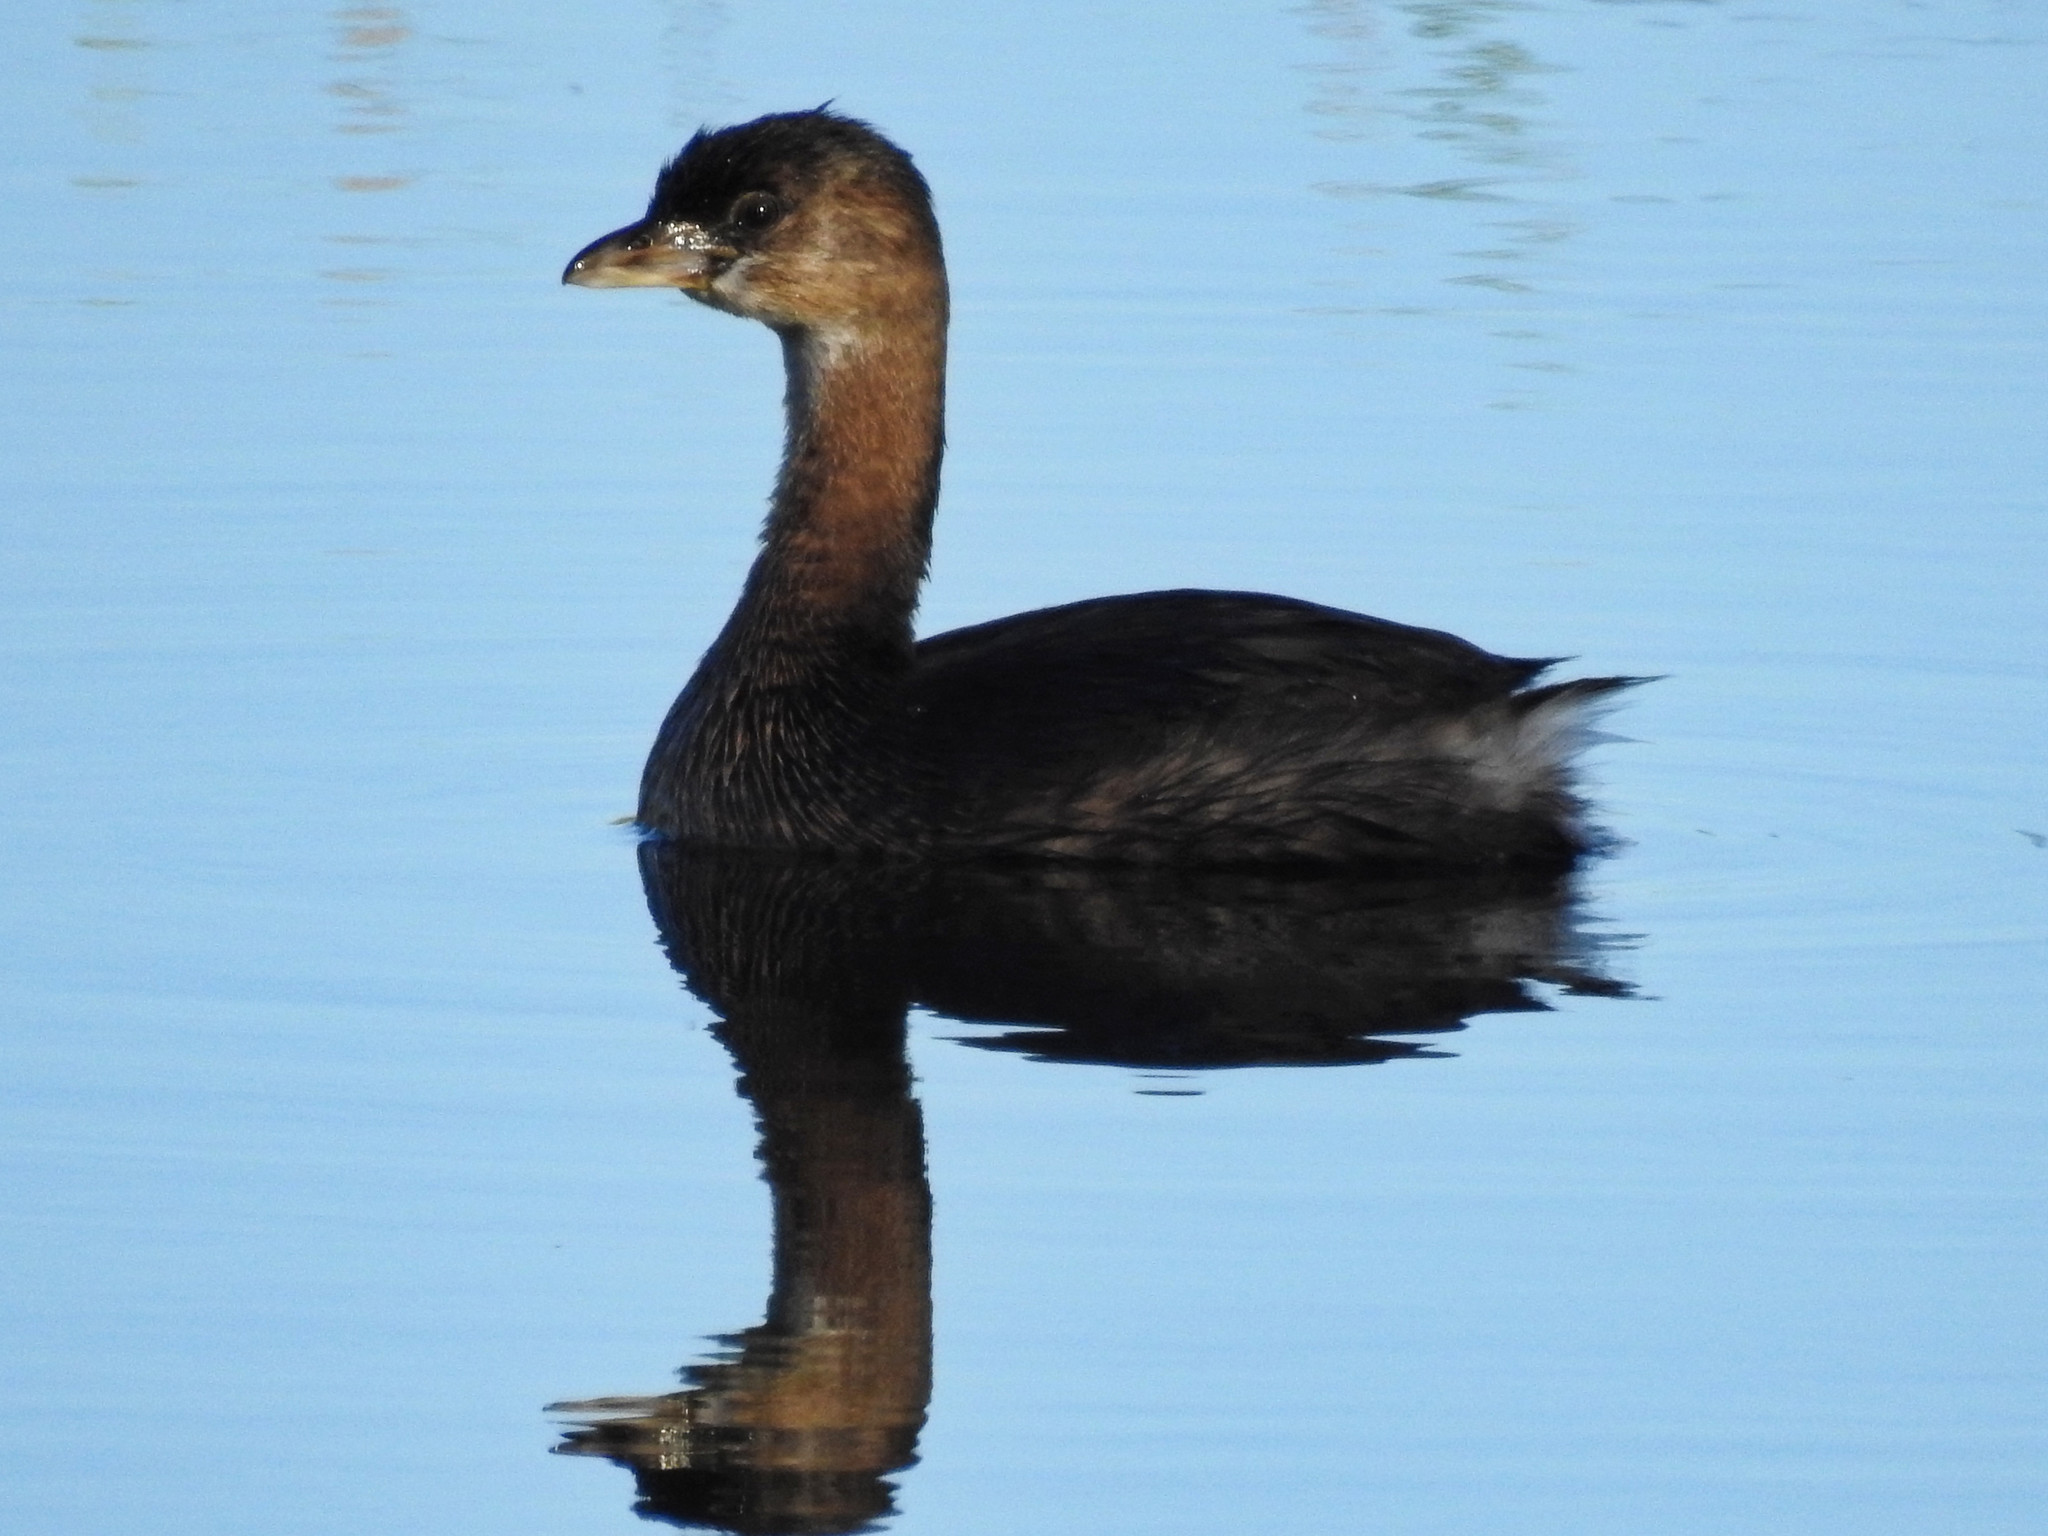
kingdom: Animalia
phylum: Chordata
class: Aves
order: Podicipediformes
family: Podicipedidae
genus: Podilymbus
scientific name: Podilymbus podiceps
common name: Pied-billed grebe
